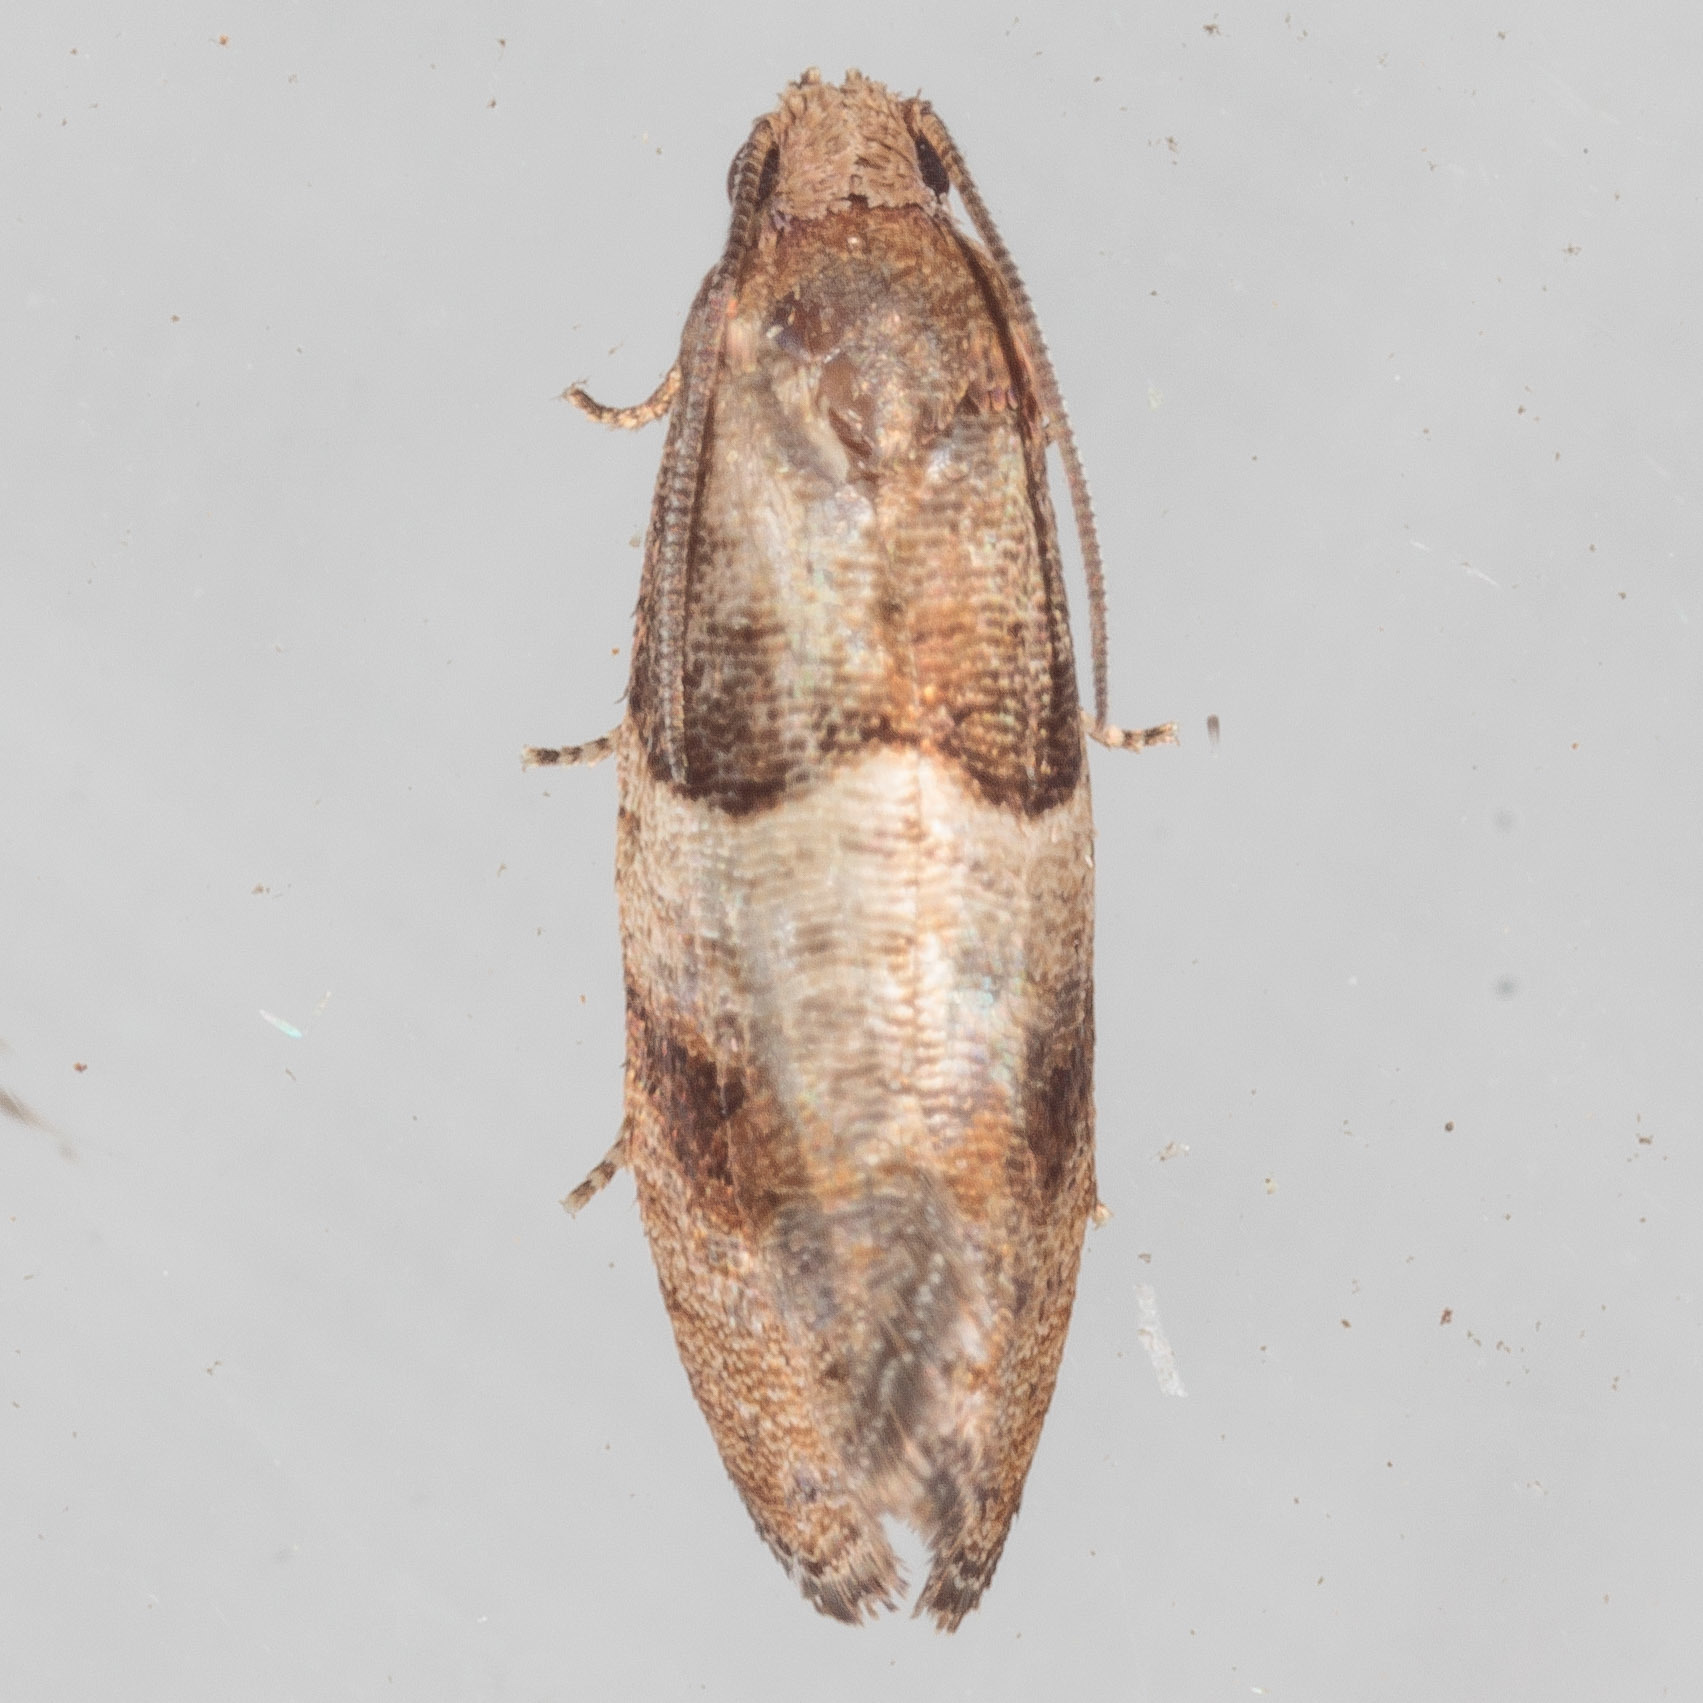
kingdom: Animalia
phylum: Arthropoda
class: Insecta
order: Lepidoptera
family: Tortricidae
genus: Larisa
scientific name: Larisa subsolana
